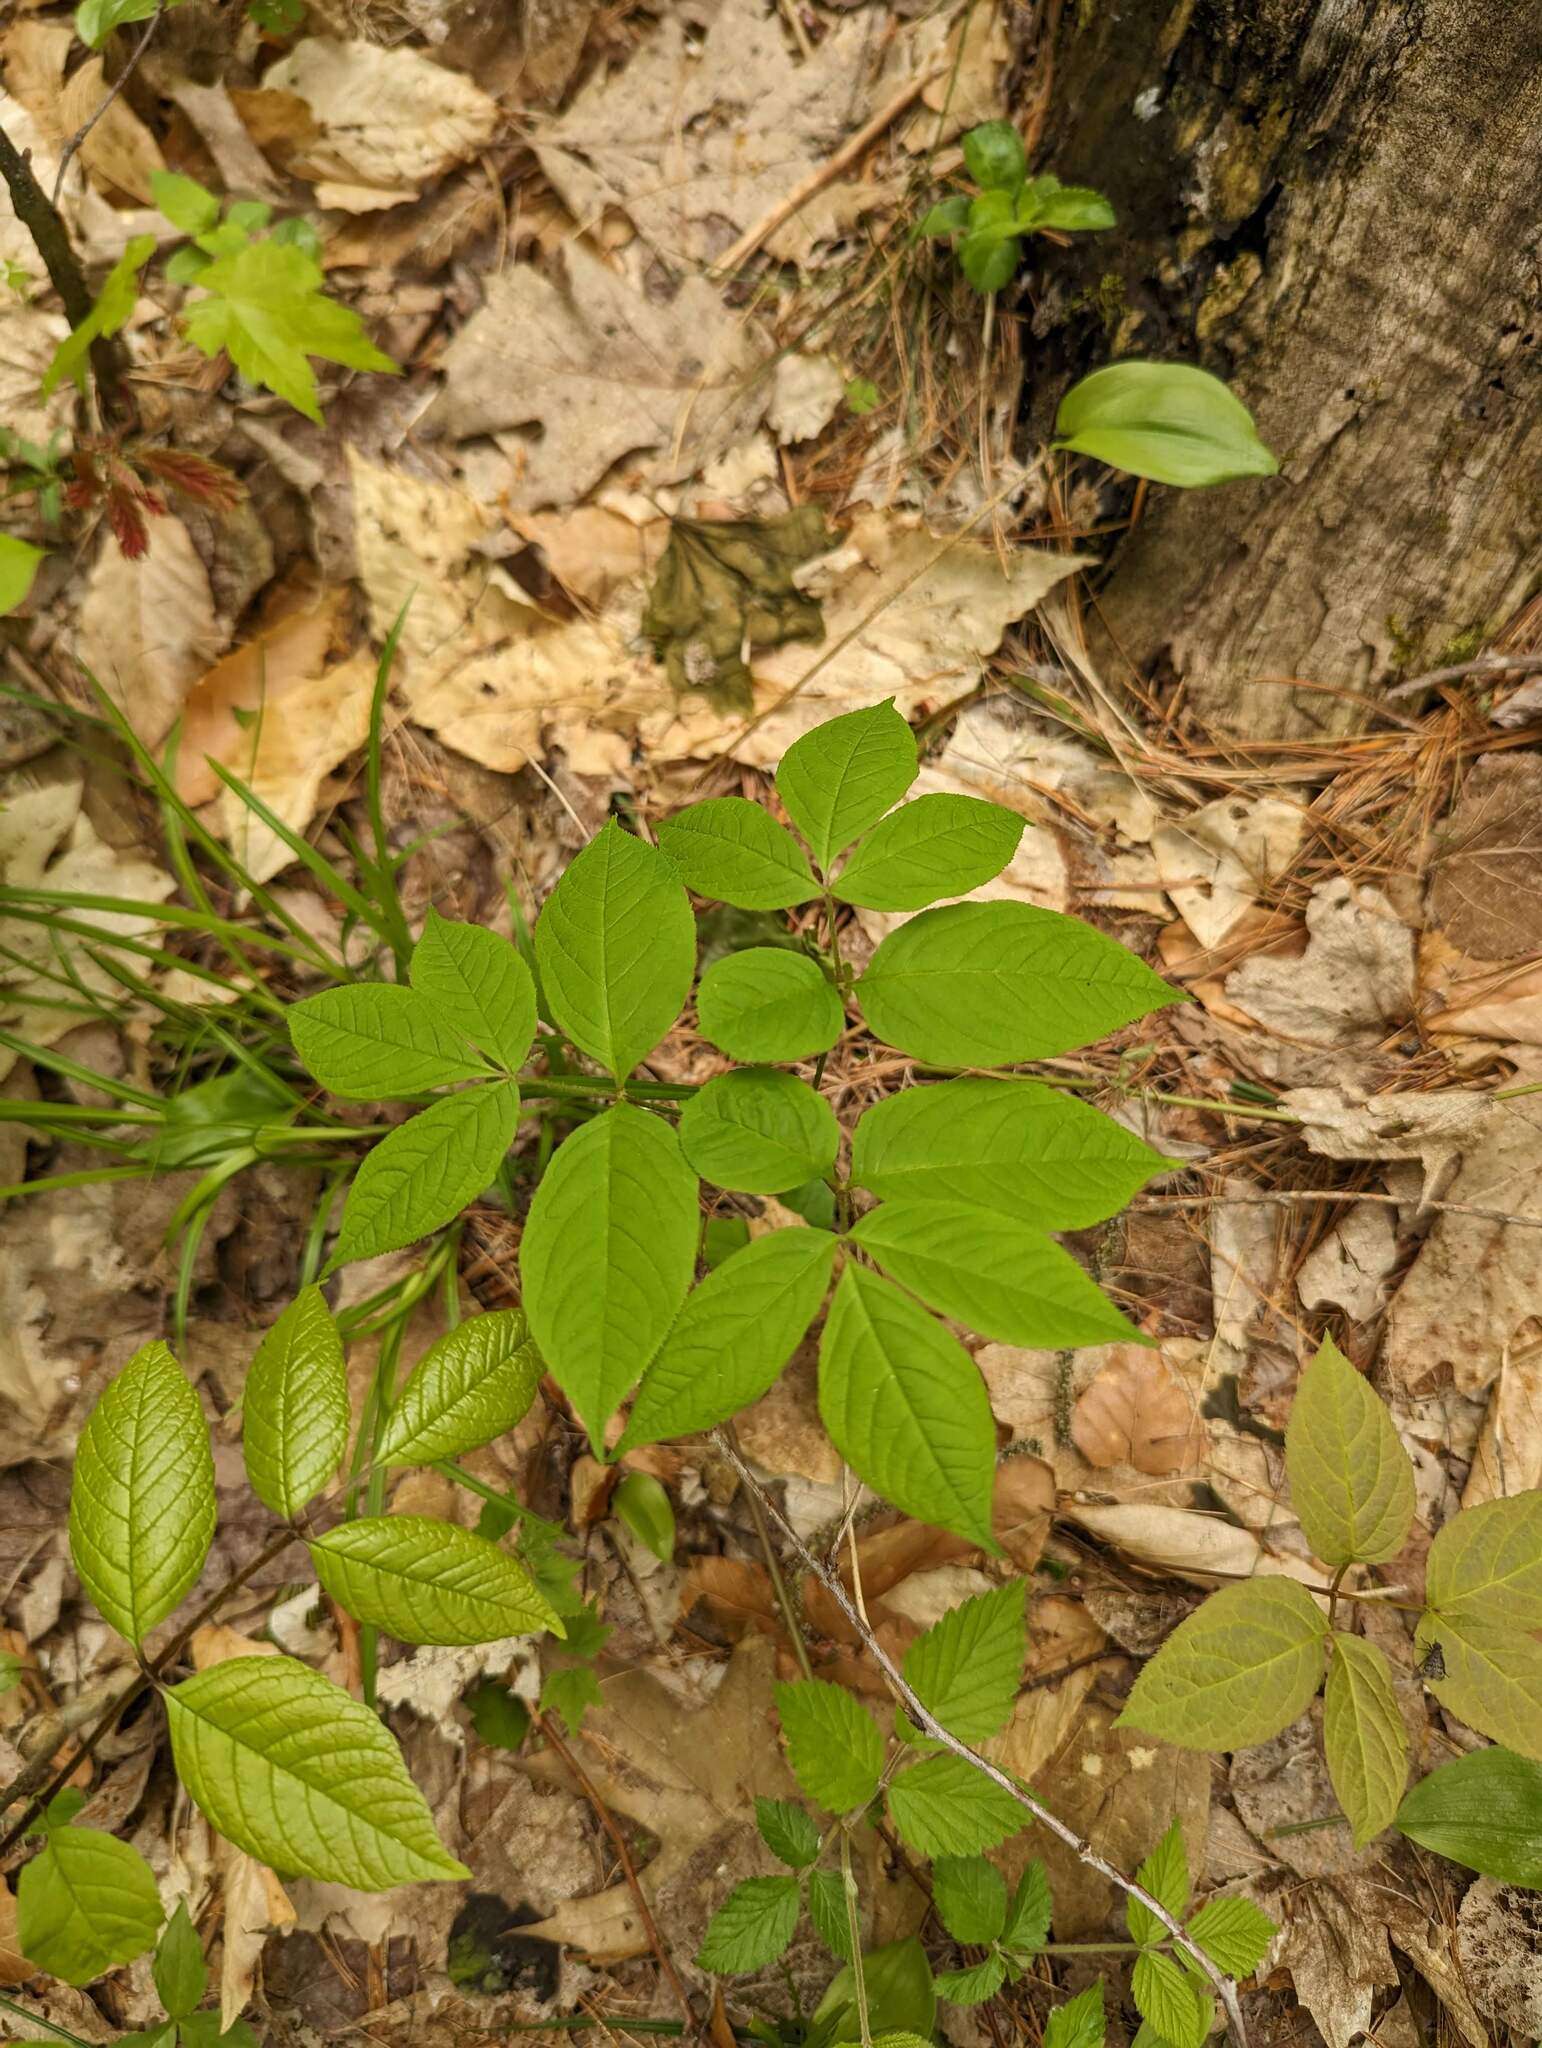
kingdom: Plantae
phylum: Tracheophyta
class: Magnoliopsida
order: Apiales
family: Araliaceae
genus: Aralia
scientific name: Aralia nudicaulis
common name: Wild sarsaparilla
